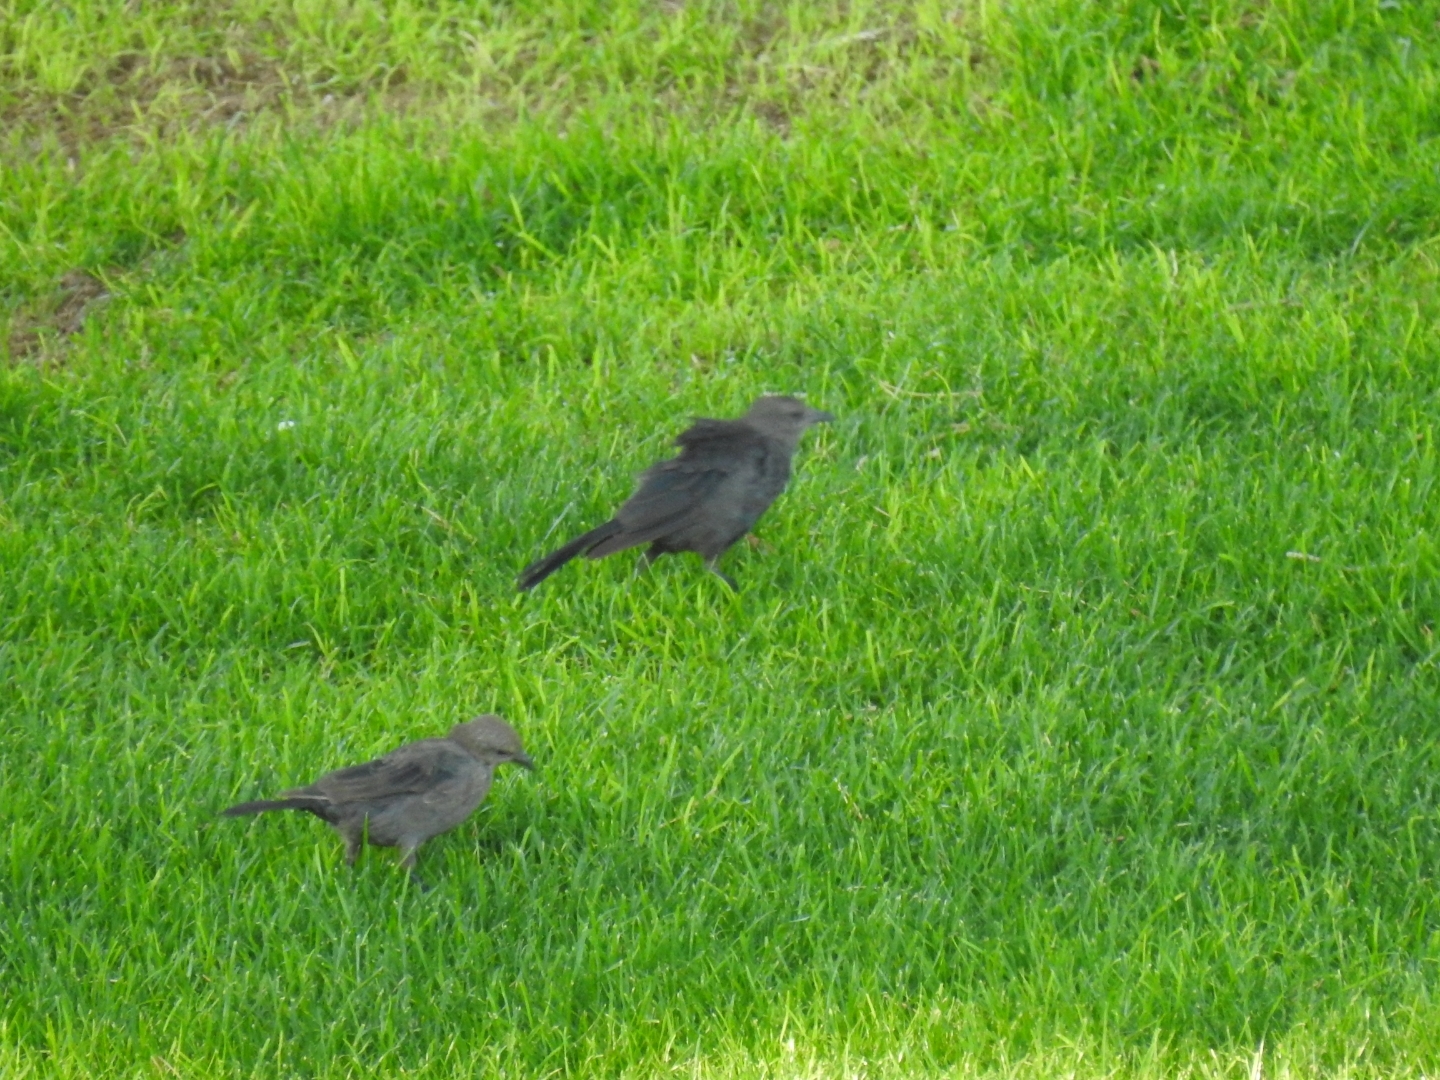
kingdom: Animalia
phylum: Chordata
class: Aves
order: Passeriformes
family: Icteridae
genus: Euphagus
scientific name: Euphagus cyanocephalus
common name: Brewer's blackbird
